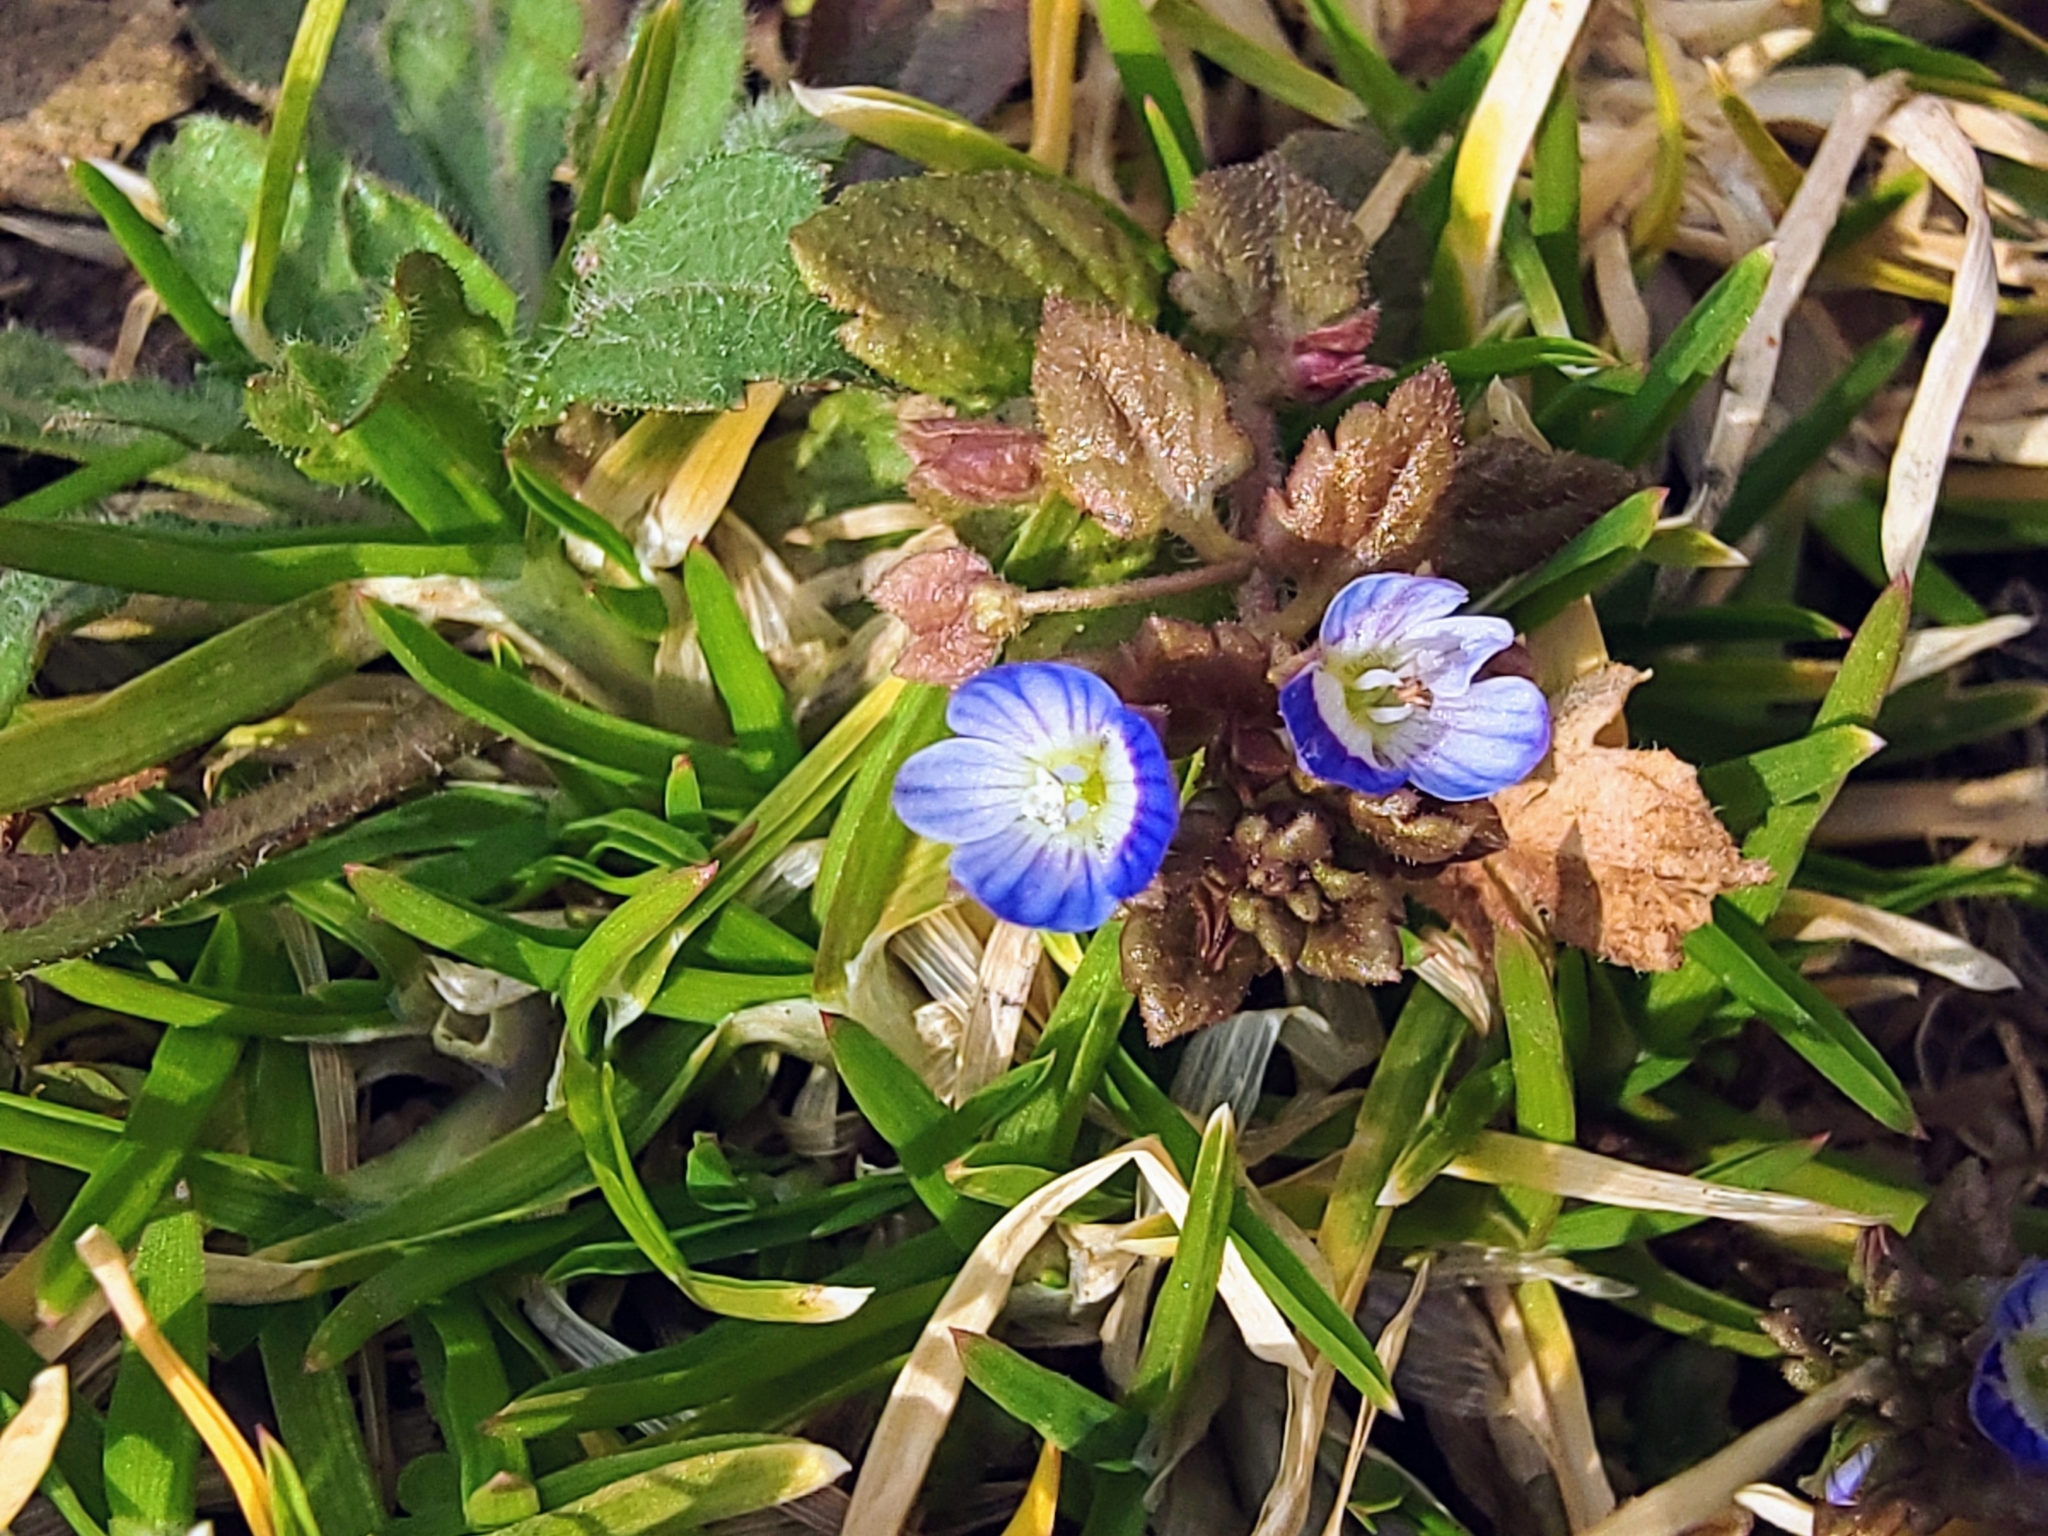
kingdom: Plantae
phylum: Tracheophyta
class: Magnoliopsida
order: Lamiales
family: Plantaginaceae
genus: Veronica
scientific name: Veronica polita
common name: Grey field-speedwell
